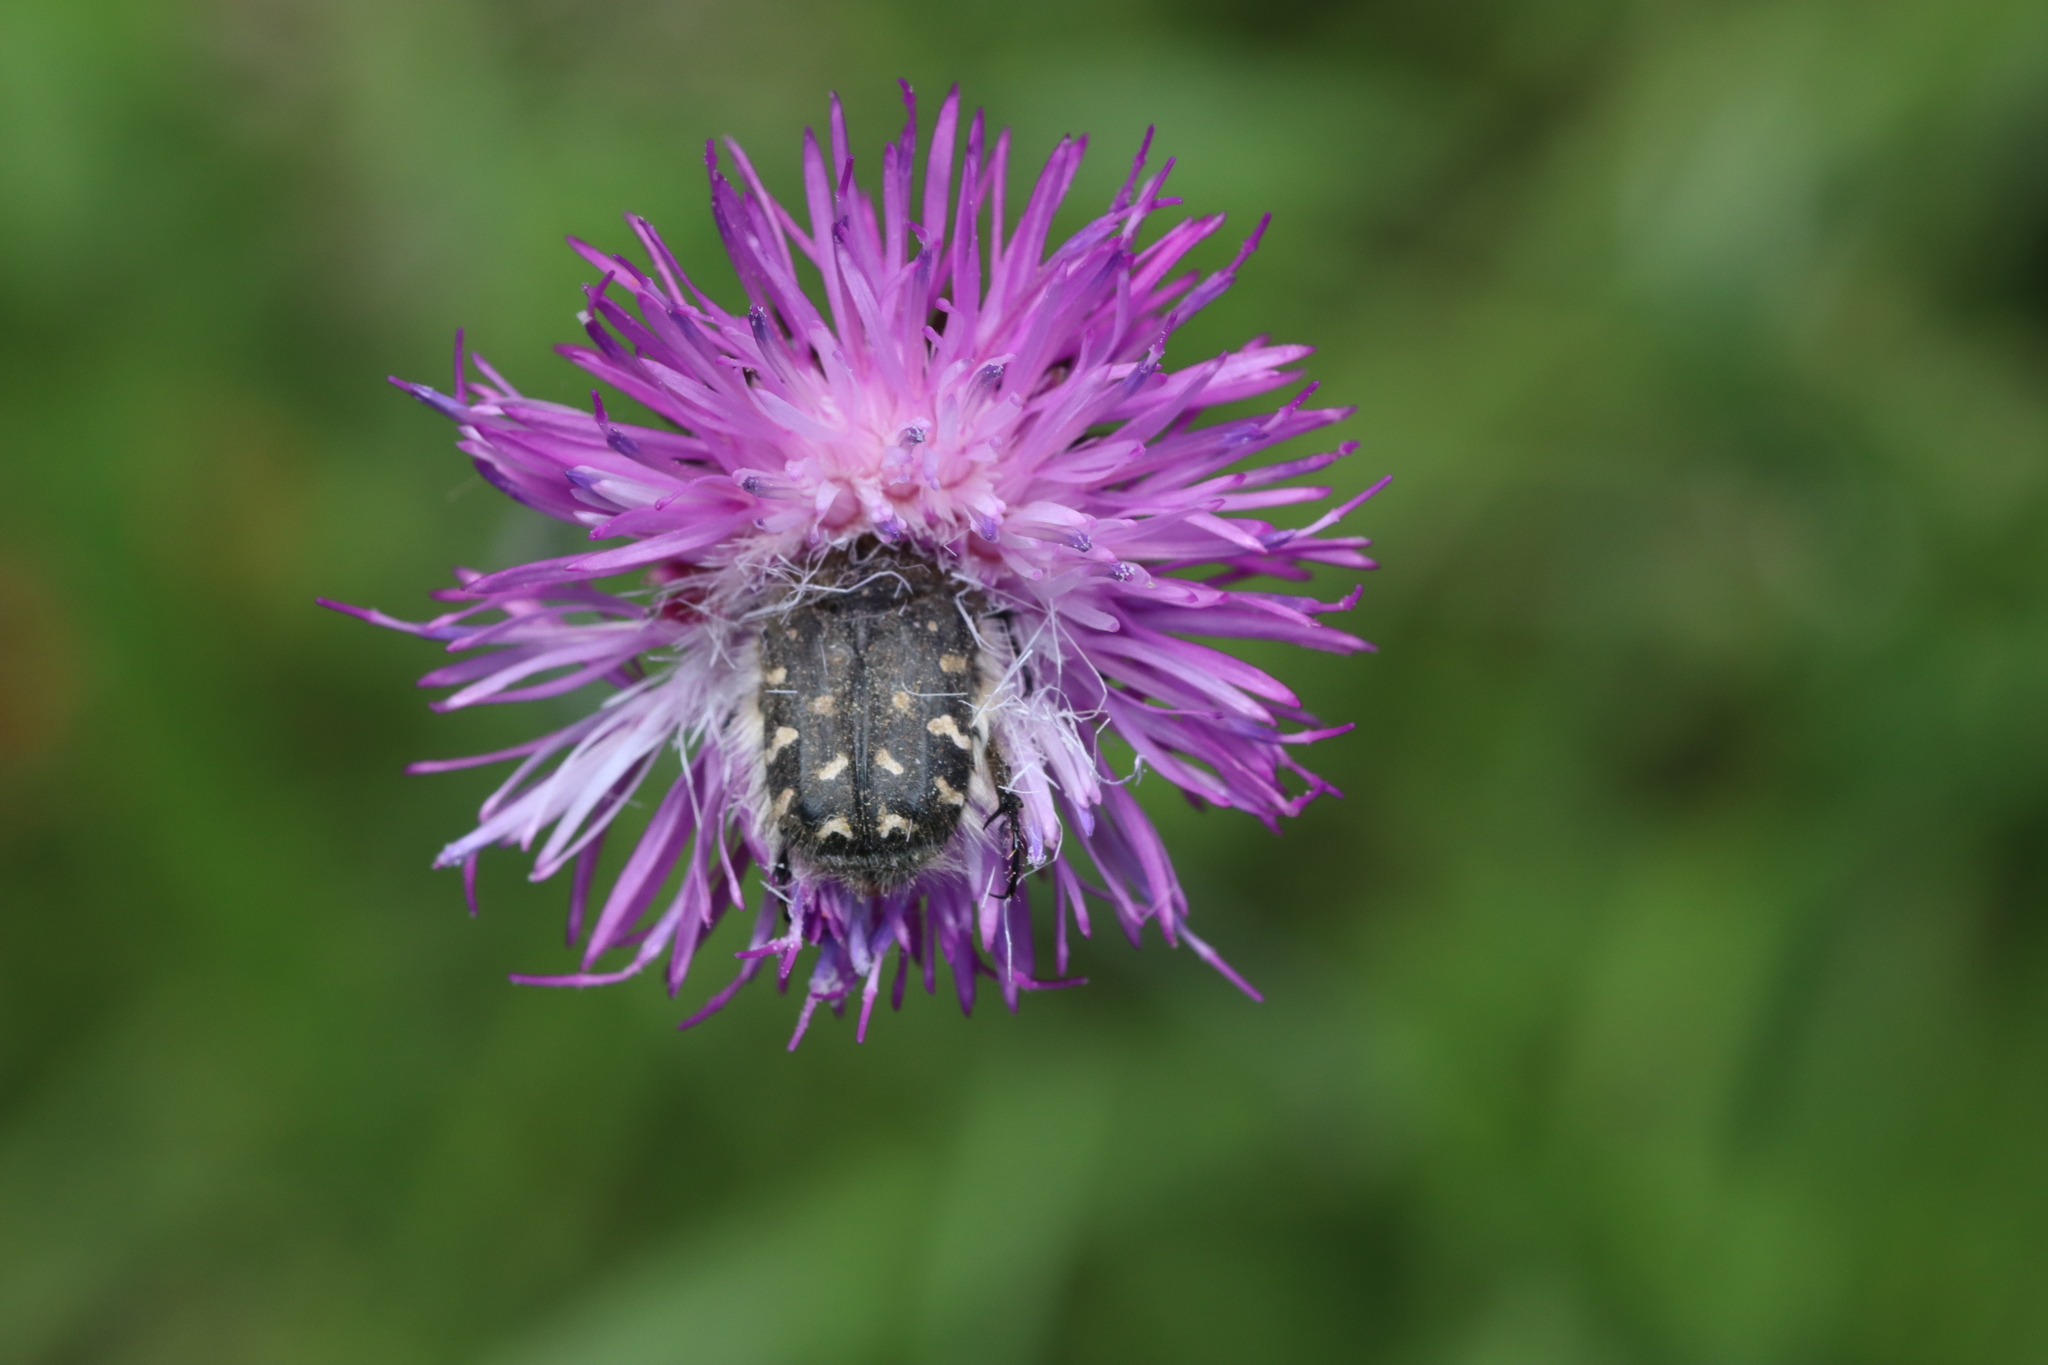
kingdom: Animalia
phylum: Arthropoda
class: Insecta
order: Coleoptera
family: Scarabaeidae
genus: Tropinota
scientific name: Tropinota hirta
